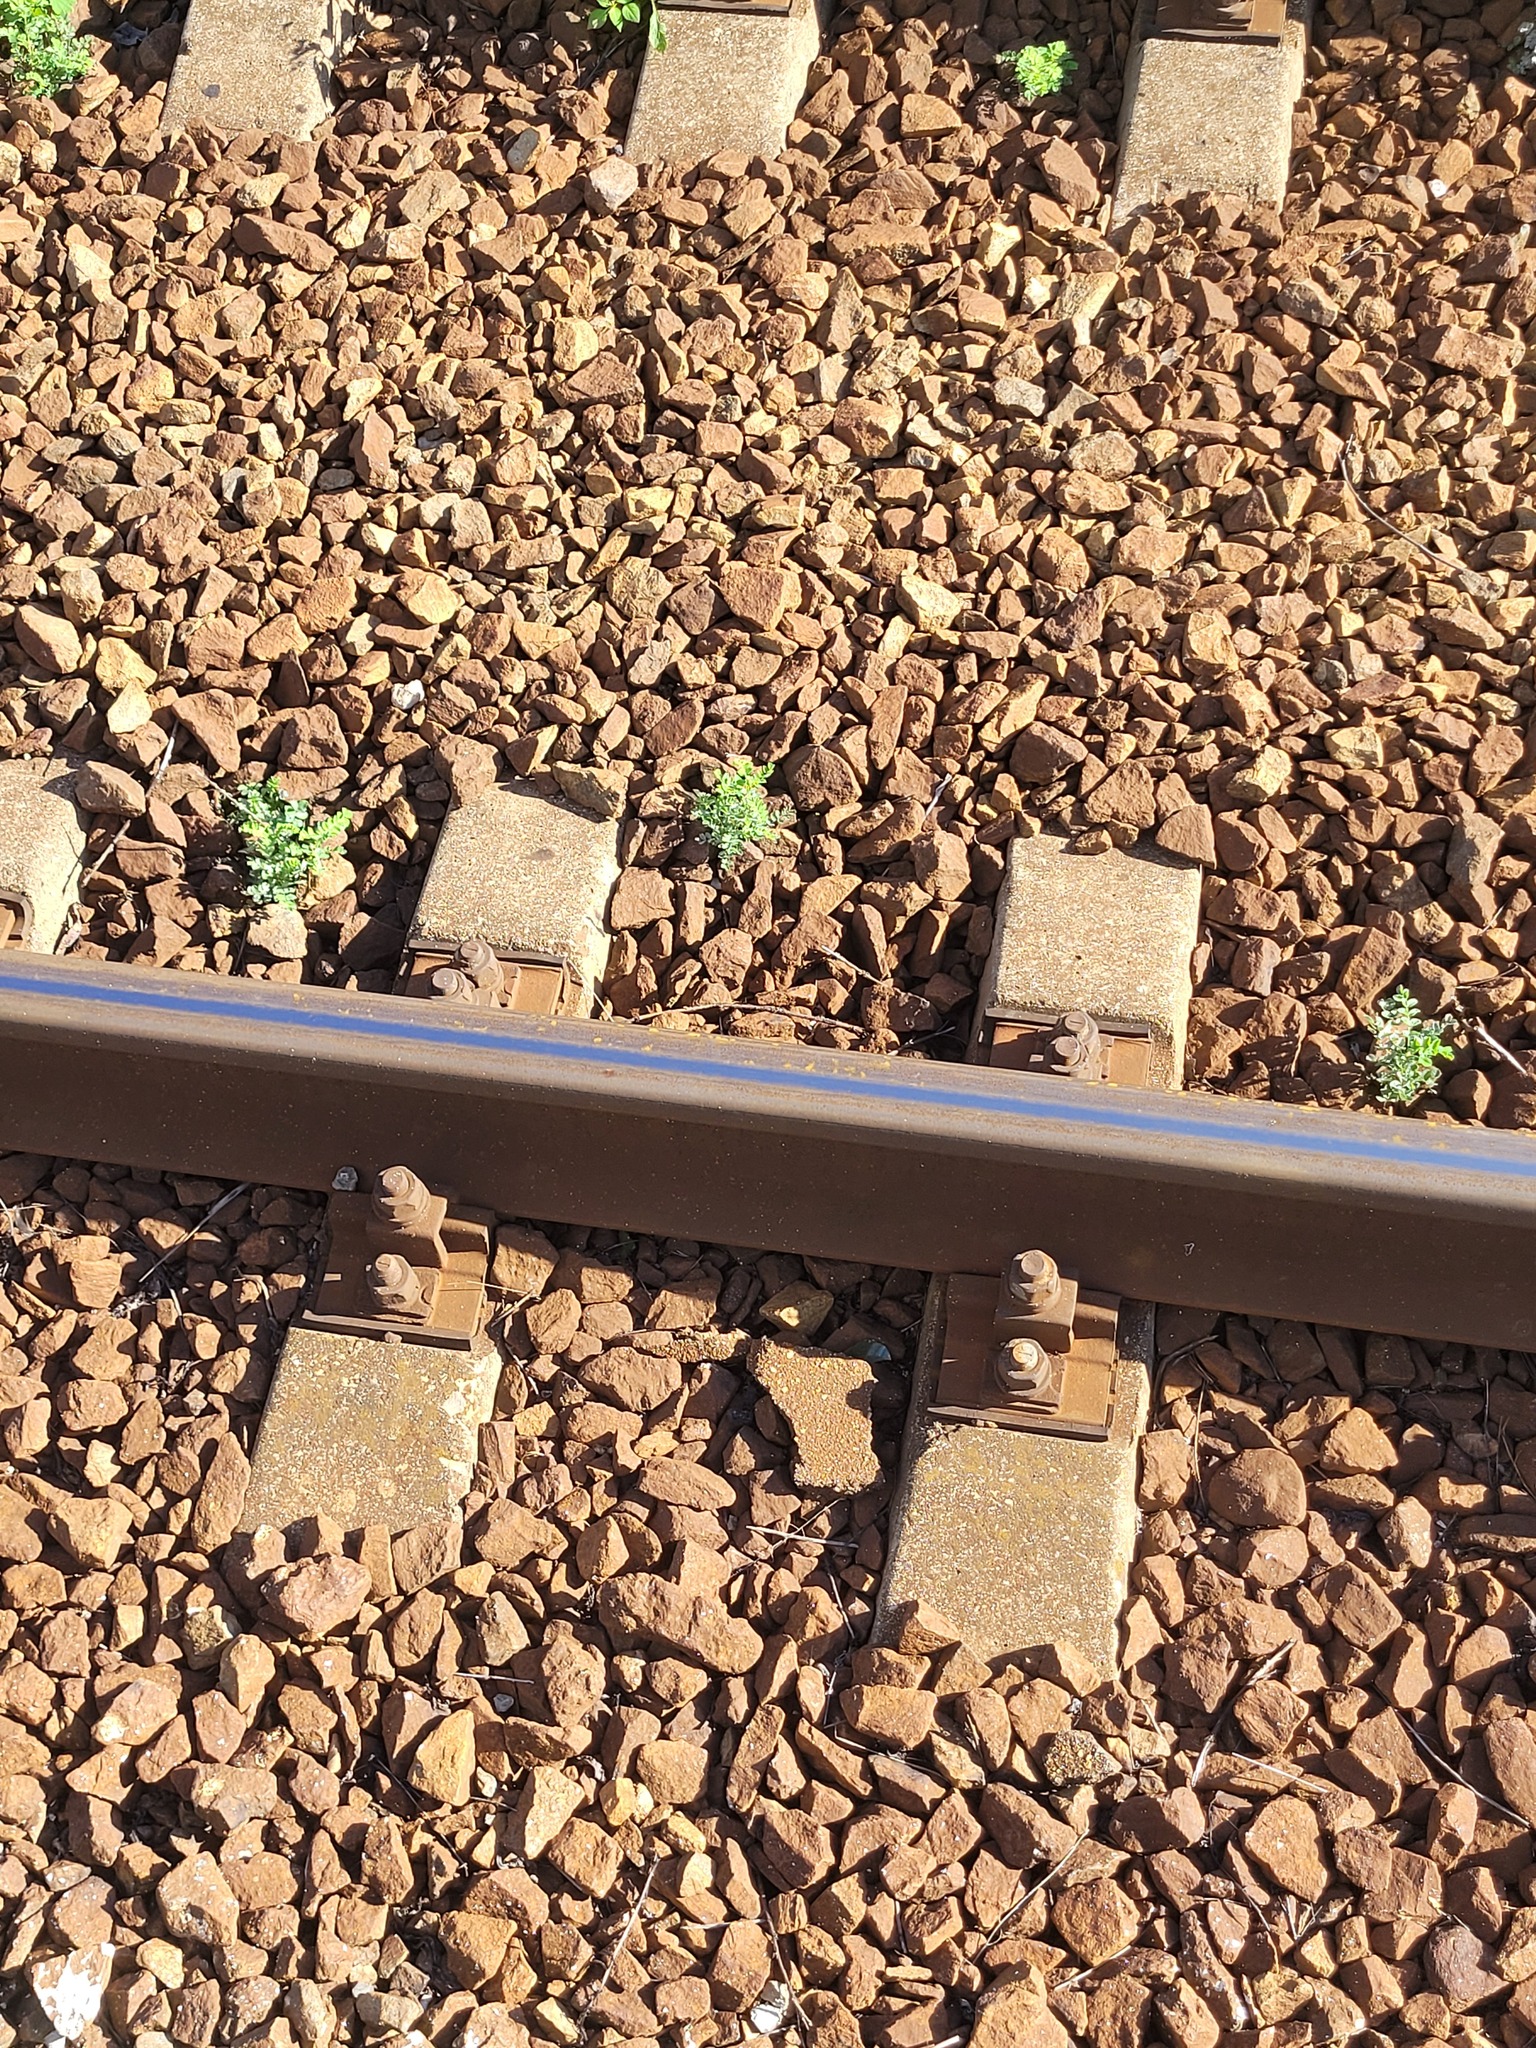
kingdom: Plantae
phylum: Tracheophyta
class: Magnoliopsida
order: Fabales
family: Fabaceae
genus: Caragana
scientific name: Caragana arborescens
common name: Siberian peashrub
